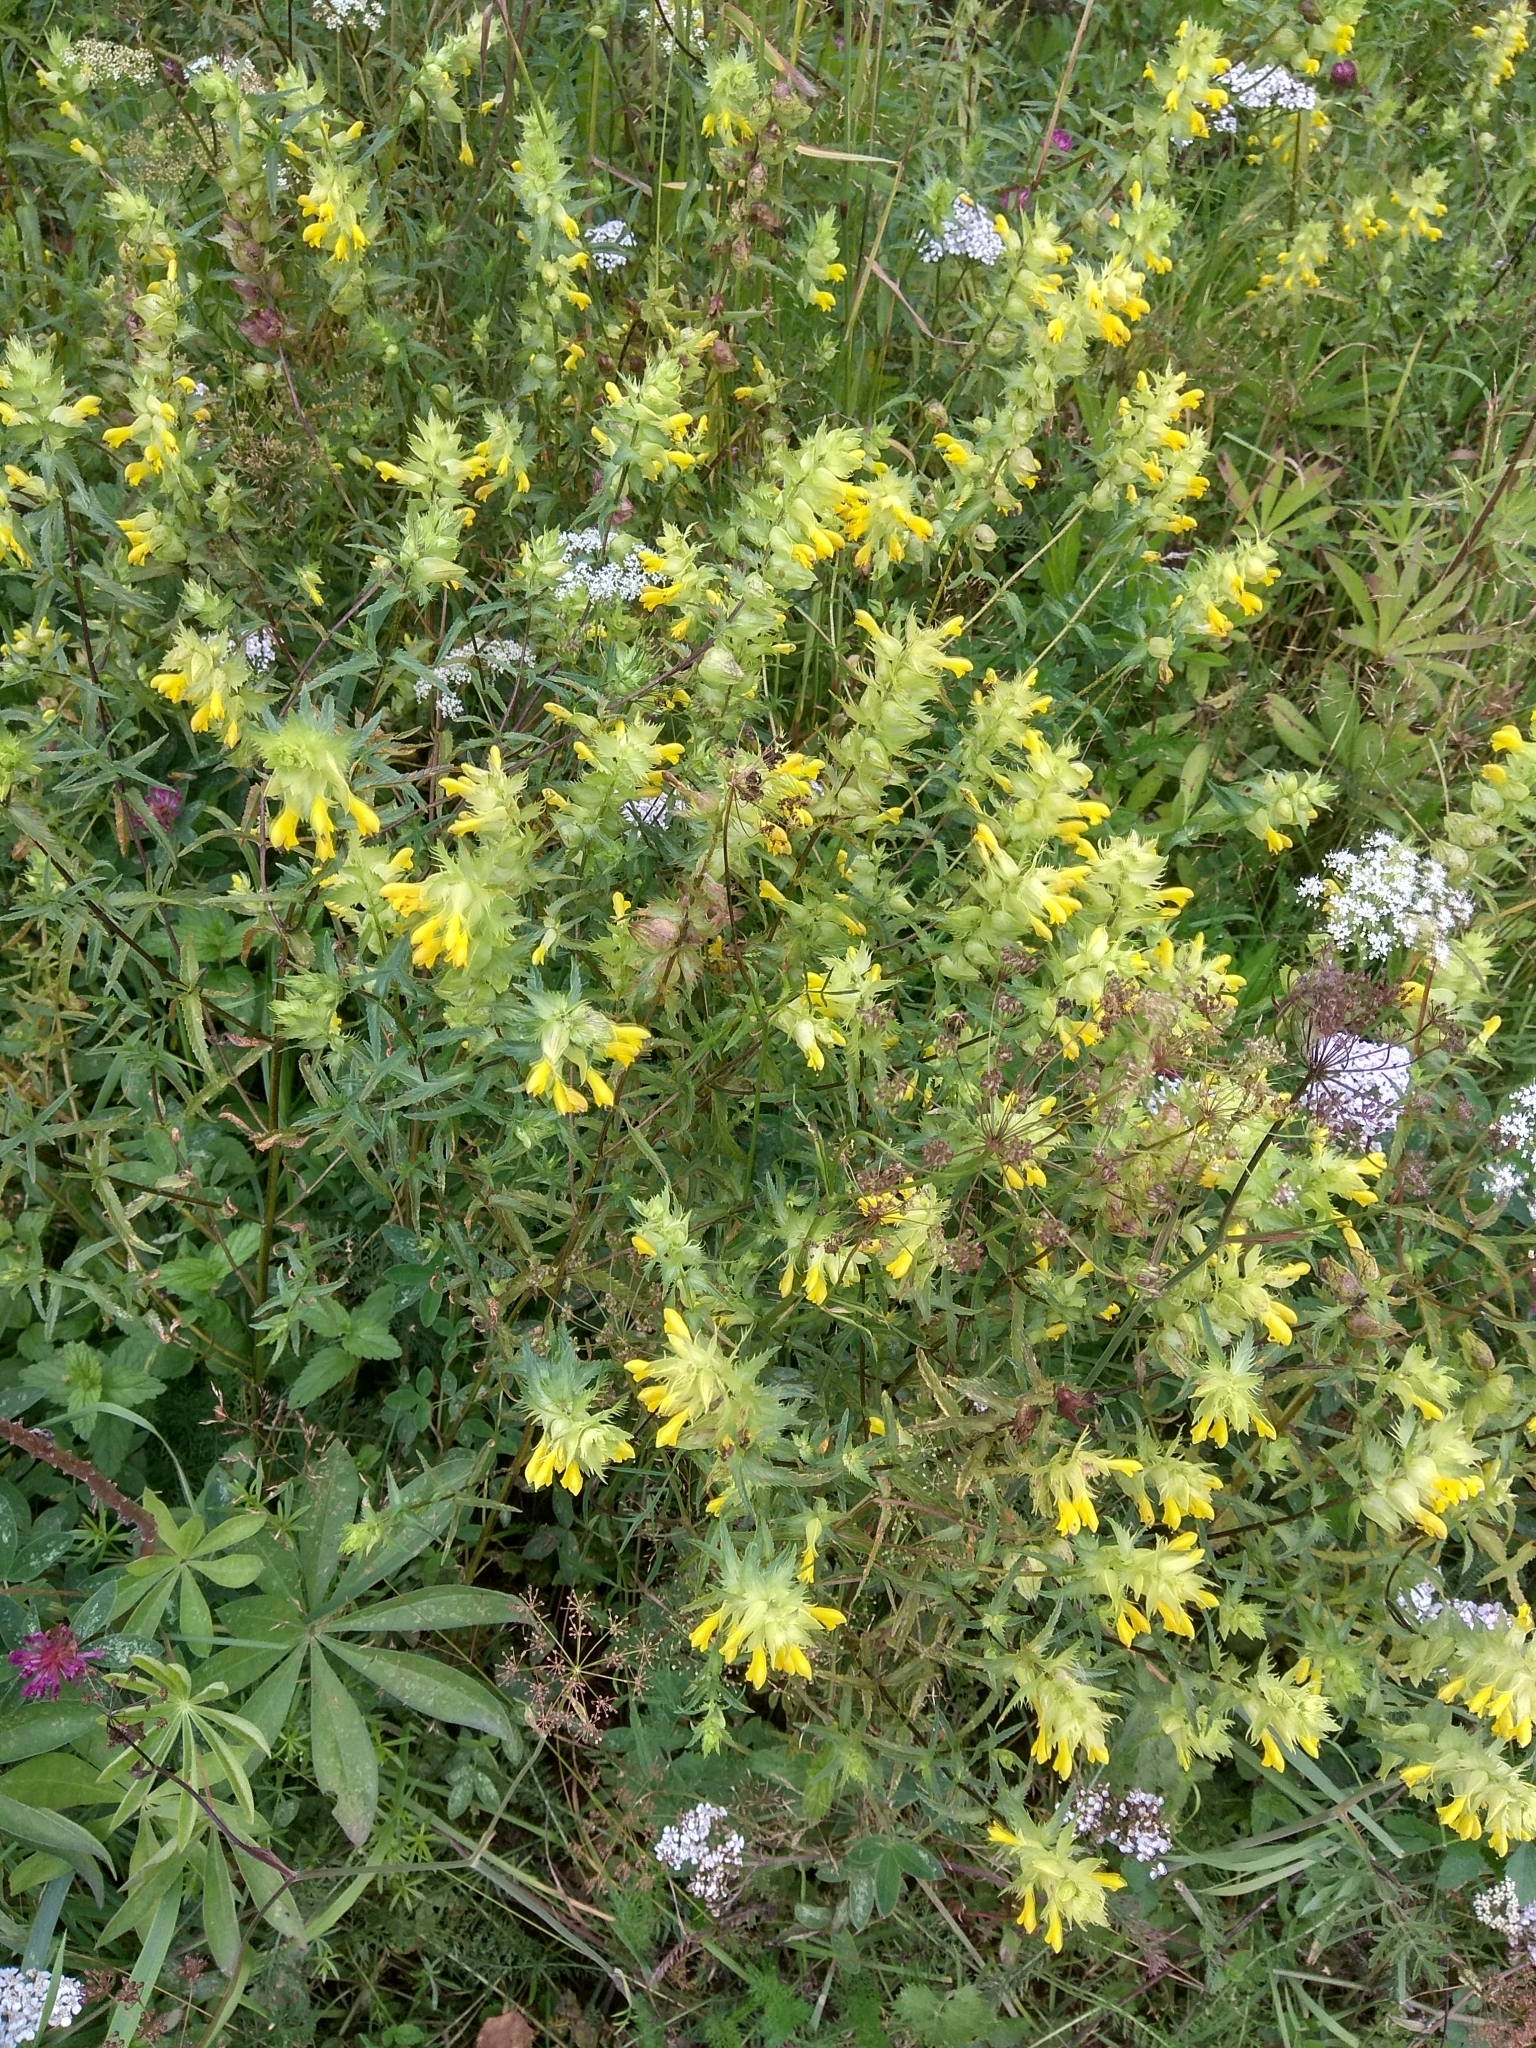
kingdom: Plantae
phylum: Tracheophyta
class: Magnoliopsida
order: Lamiales
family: Orobanchaceae
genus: Rhinanthus
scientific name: Rhinanthus serotinus
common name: Late-flowering yellow rattle
